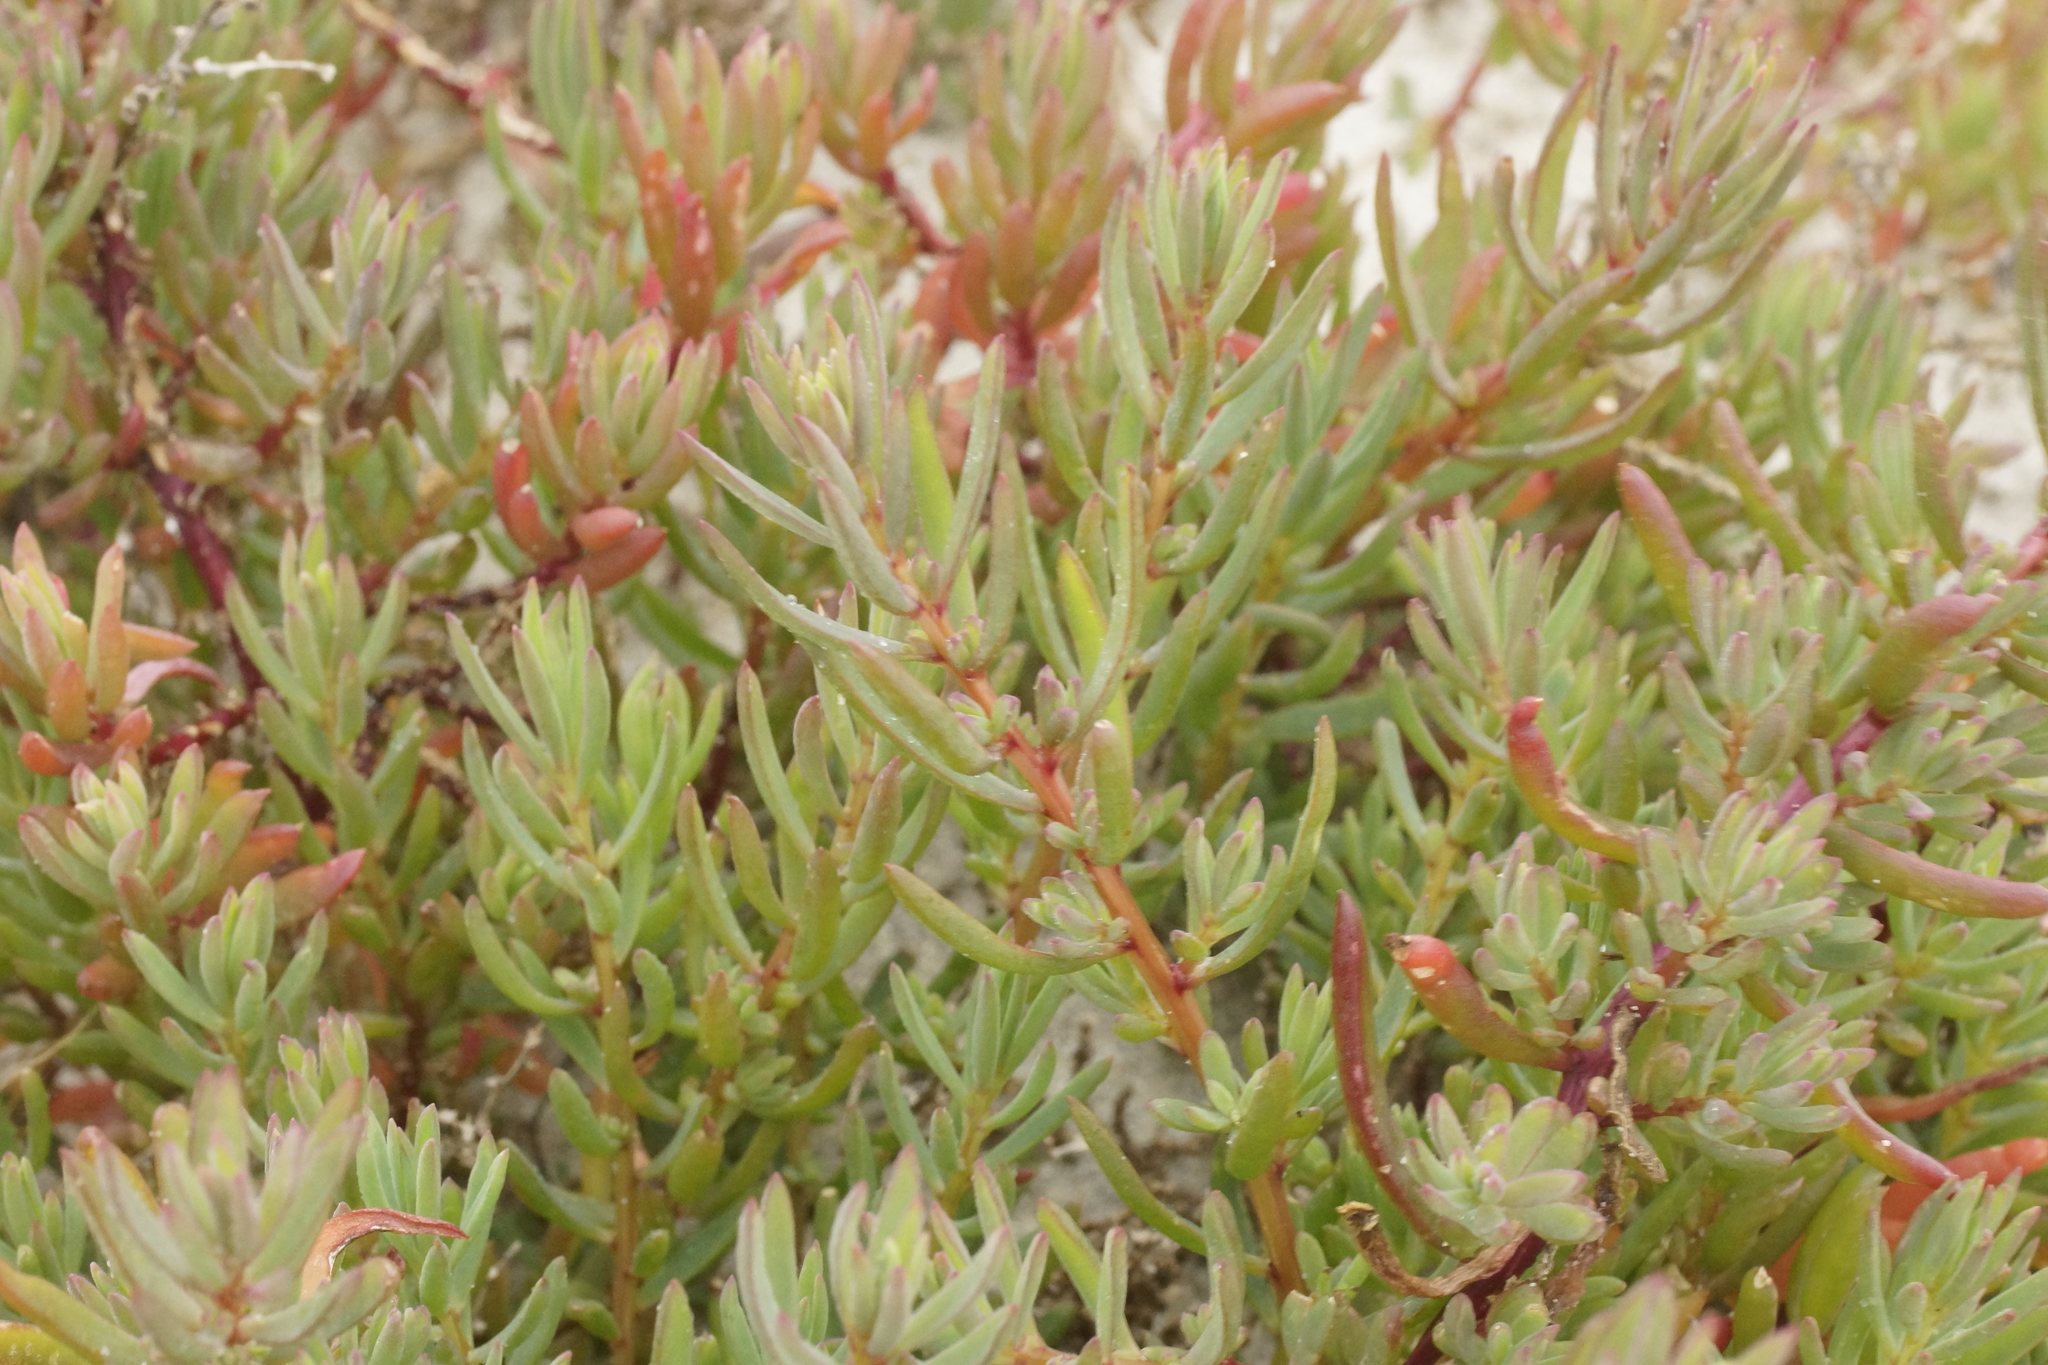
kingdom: Plantae
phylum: Tracheophyta
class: Magnoliopsida
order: Caryophyllales
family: Amaranthaceae
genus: Suaeda
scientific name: Suaeda australis
